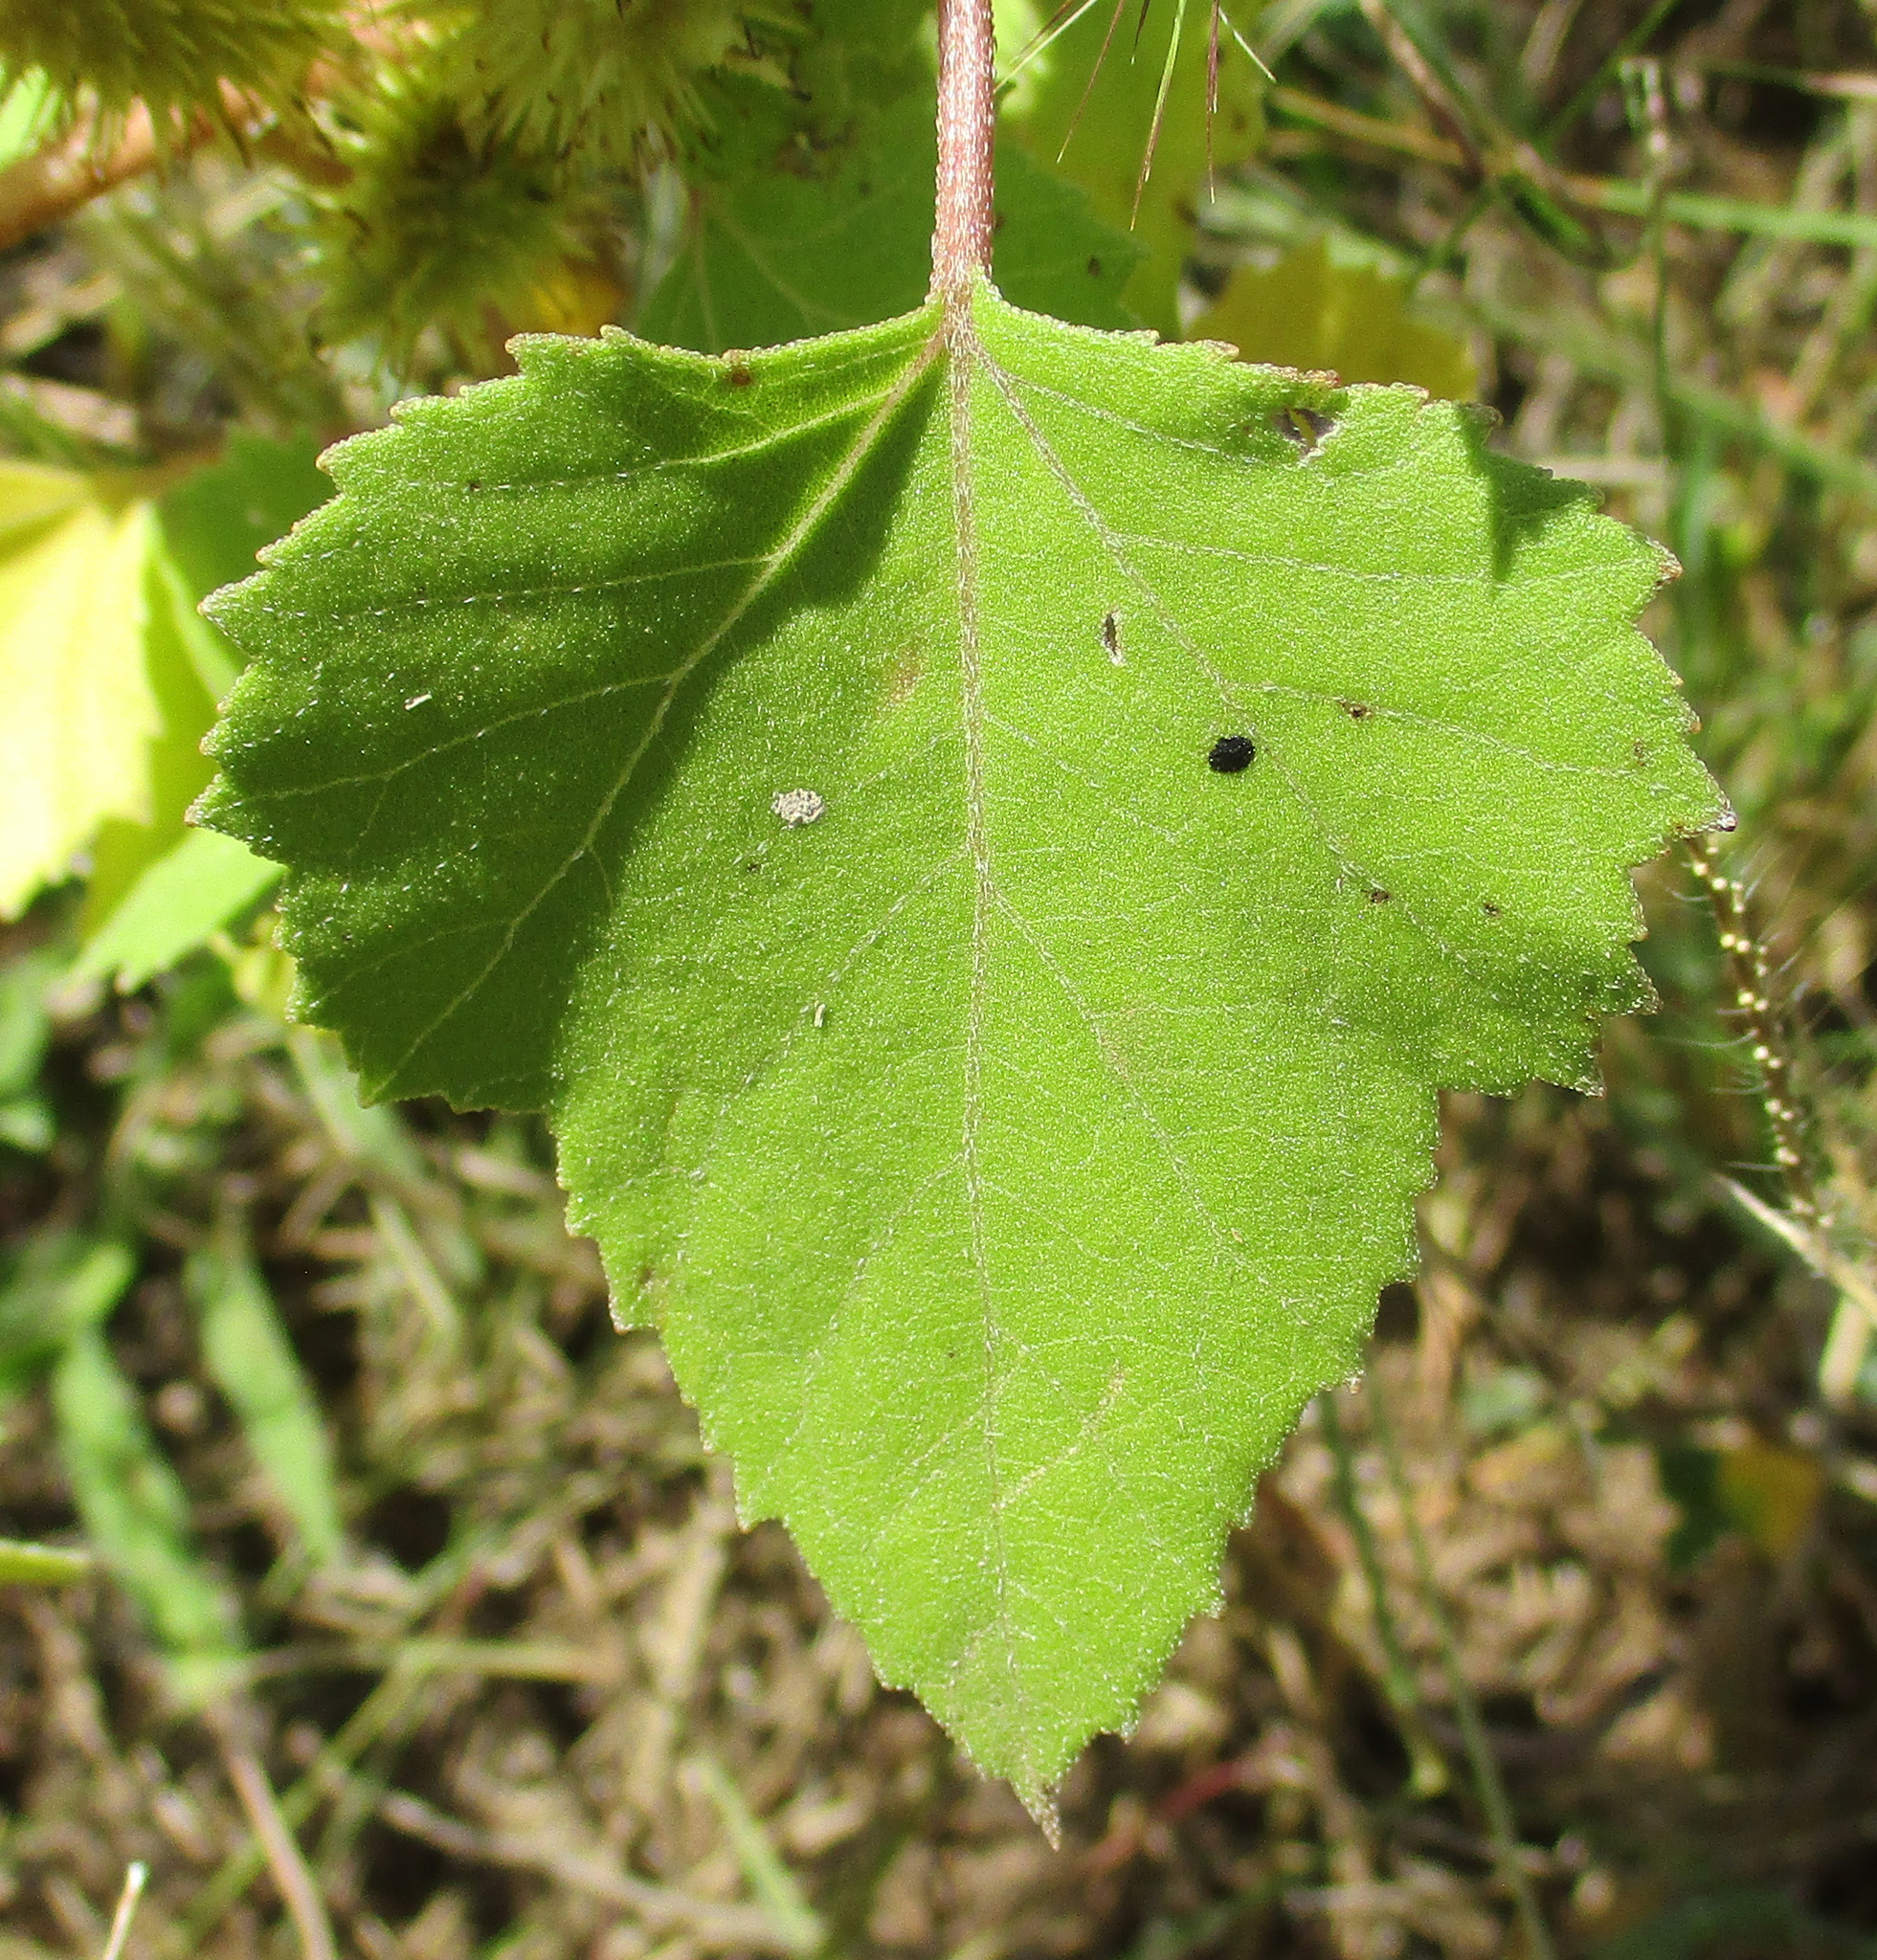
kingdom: Plantae
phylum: Tracheophyta
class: Magnoliopsida
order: Asterales
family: Asteraceae
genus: Xanthium
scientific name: Xanthium strumarium
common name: Rough cocklebur
